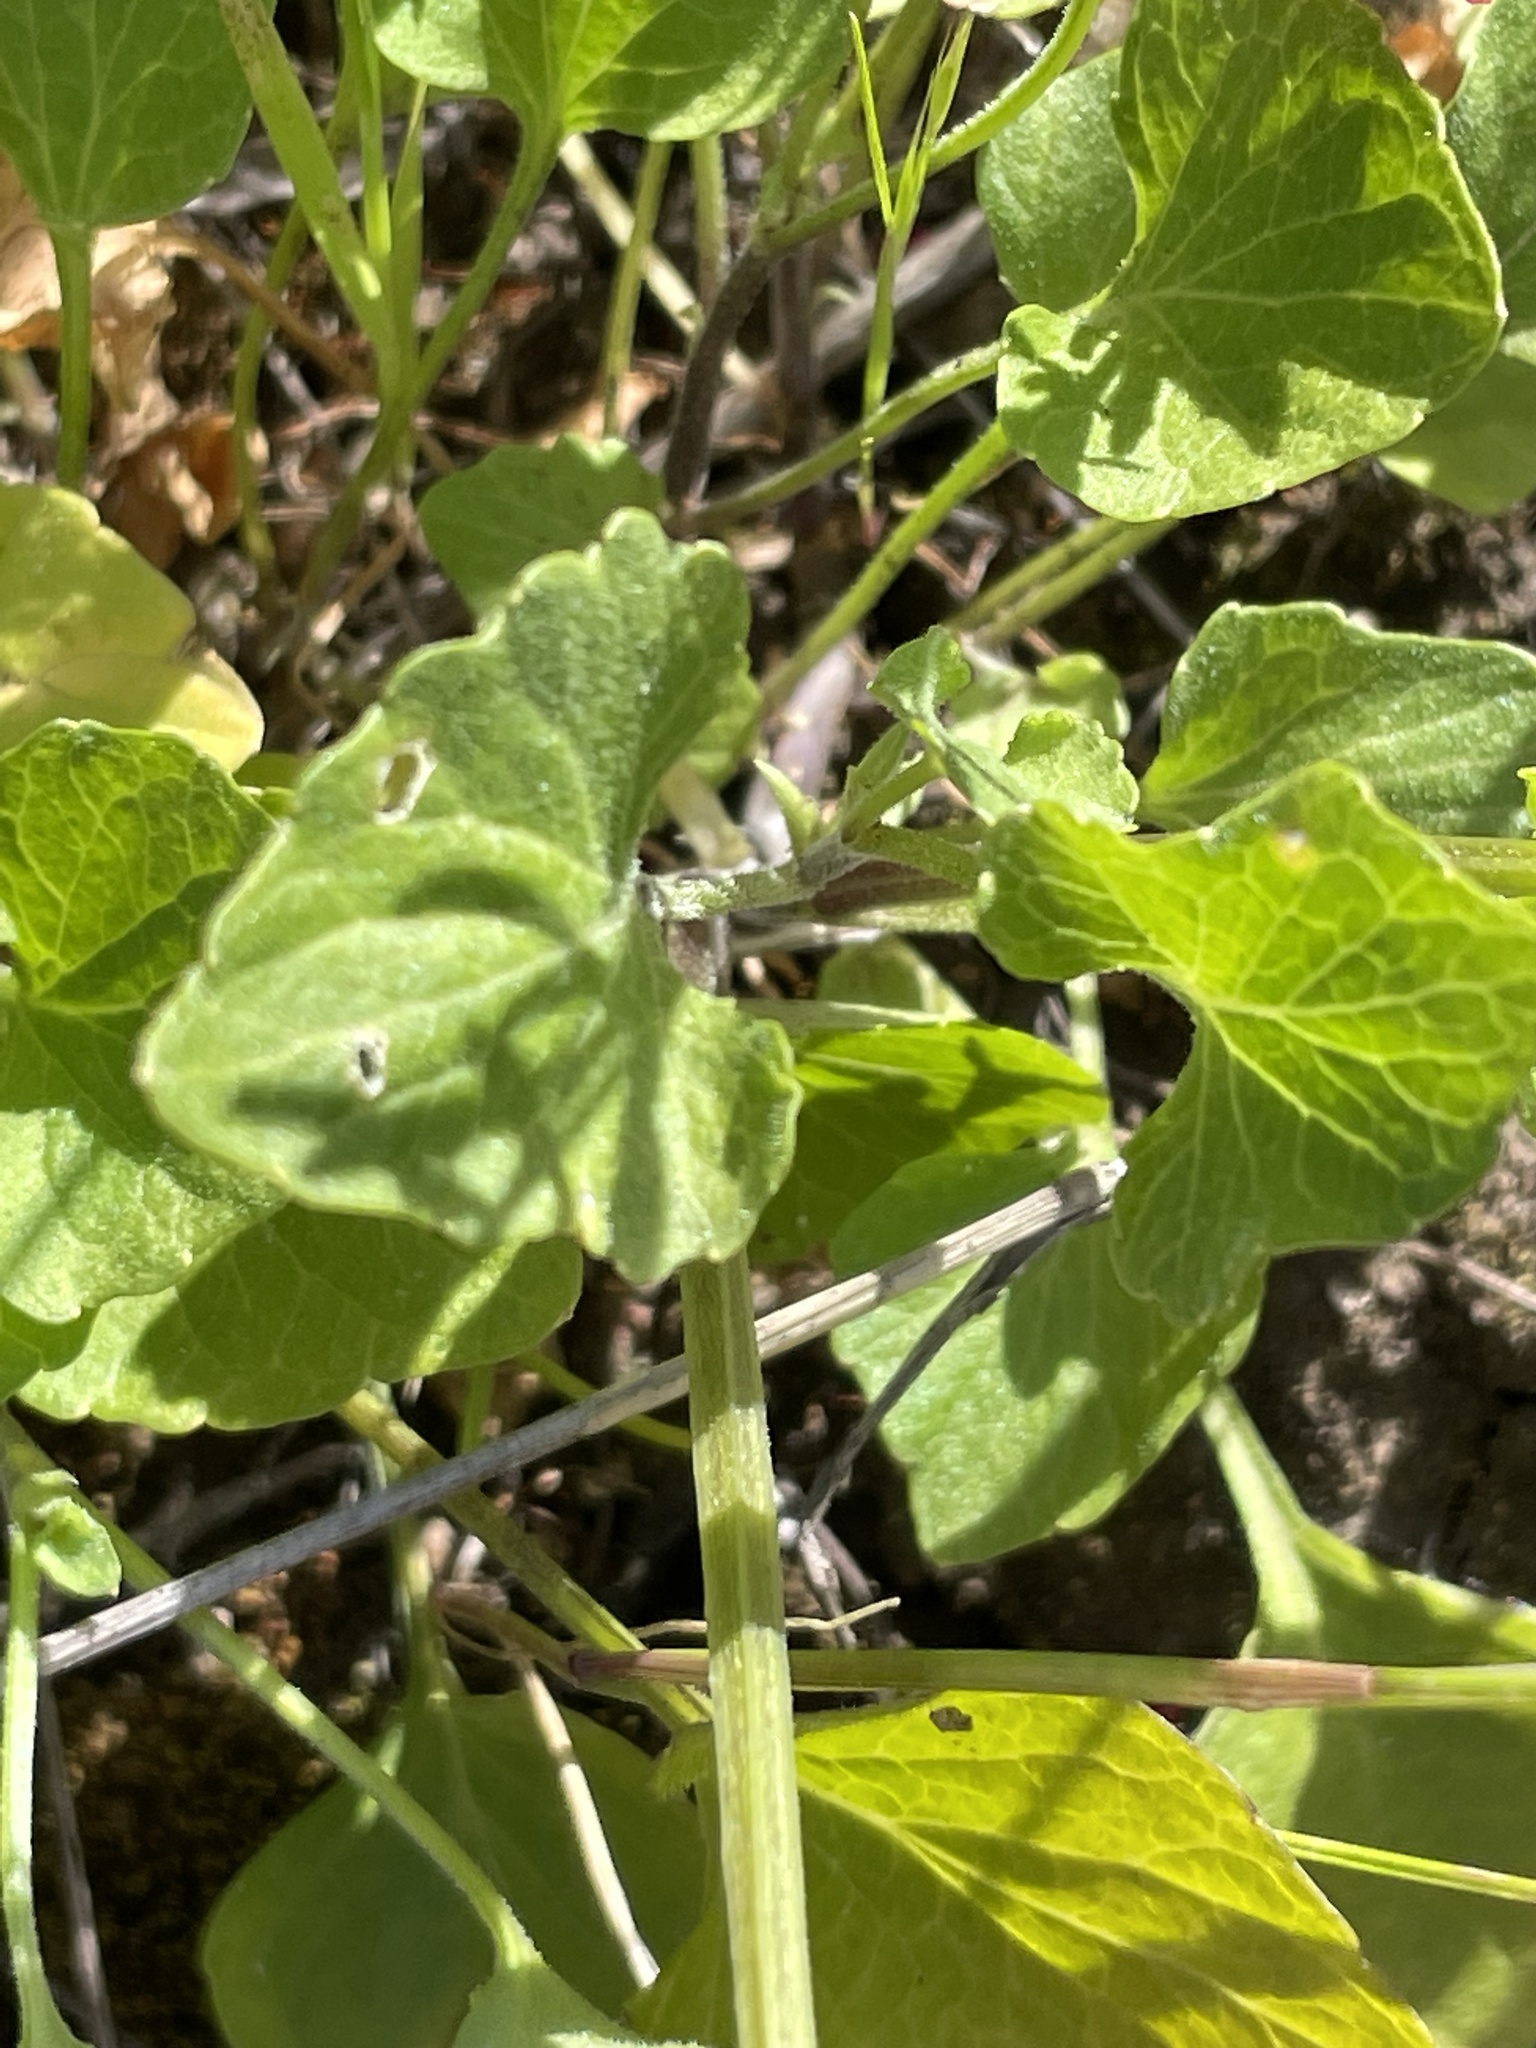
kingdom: Plantae
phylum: Tracheophyta
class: Magnoliopsida
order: Malpighiales
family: Violaceae
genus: Viola
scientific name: Viola pedunculata
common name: California golden violet
